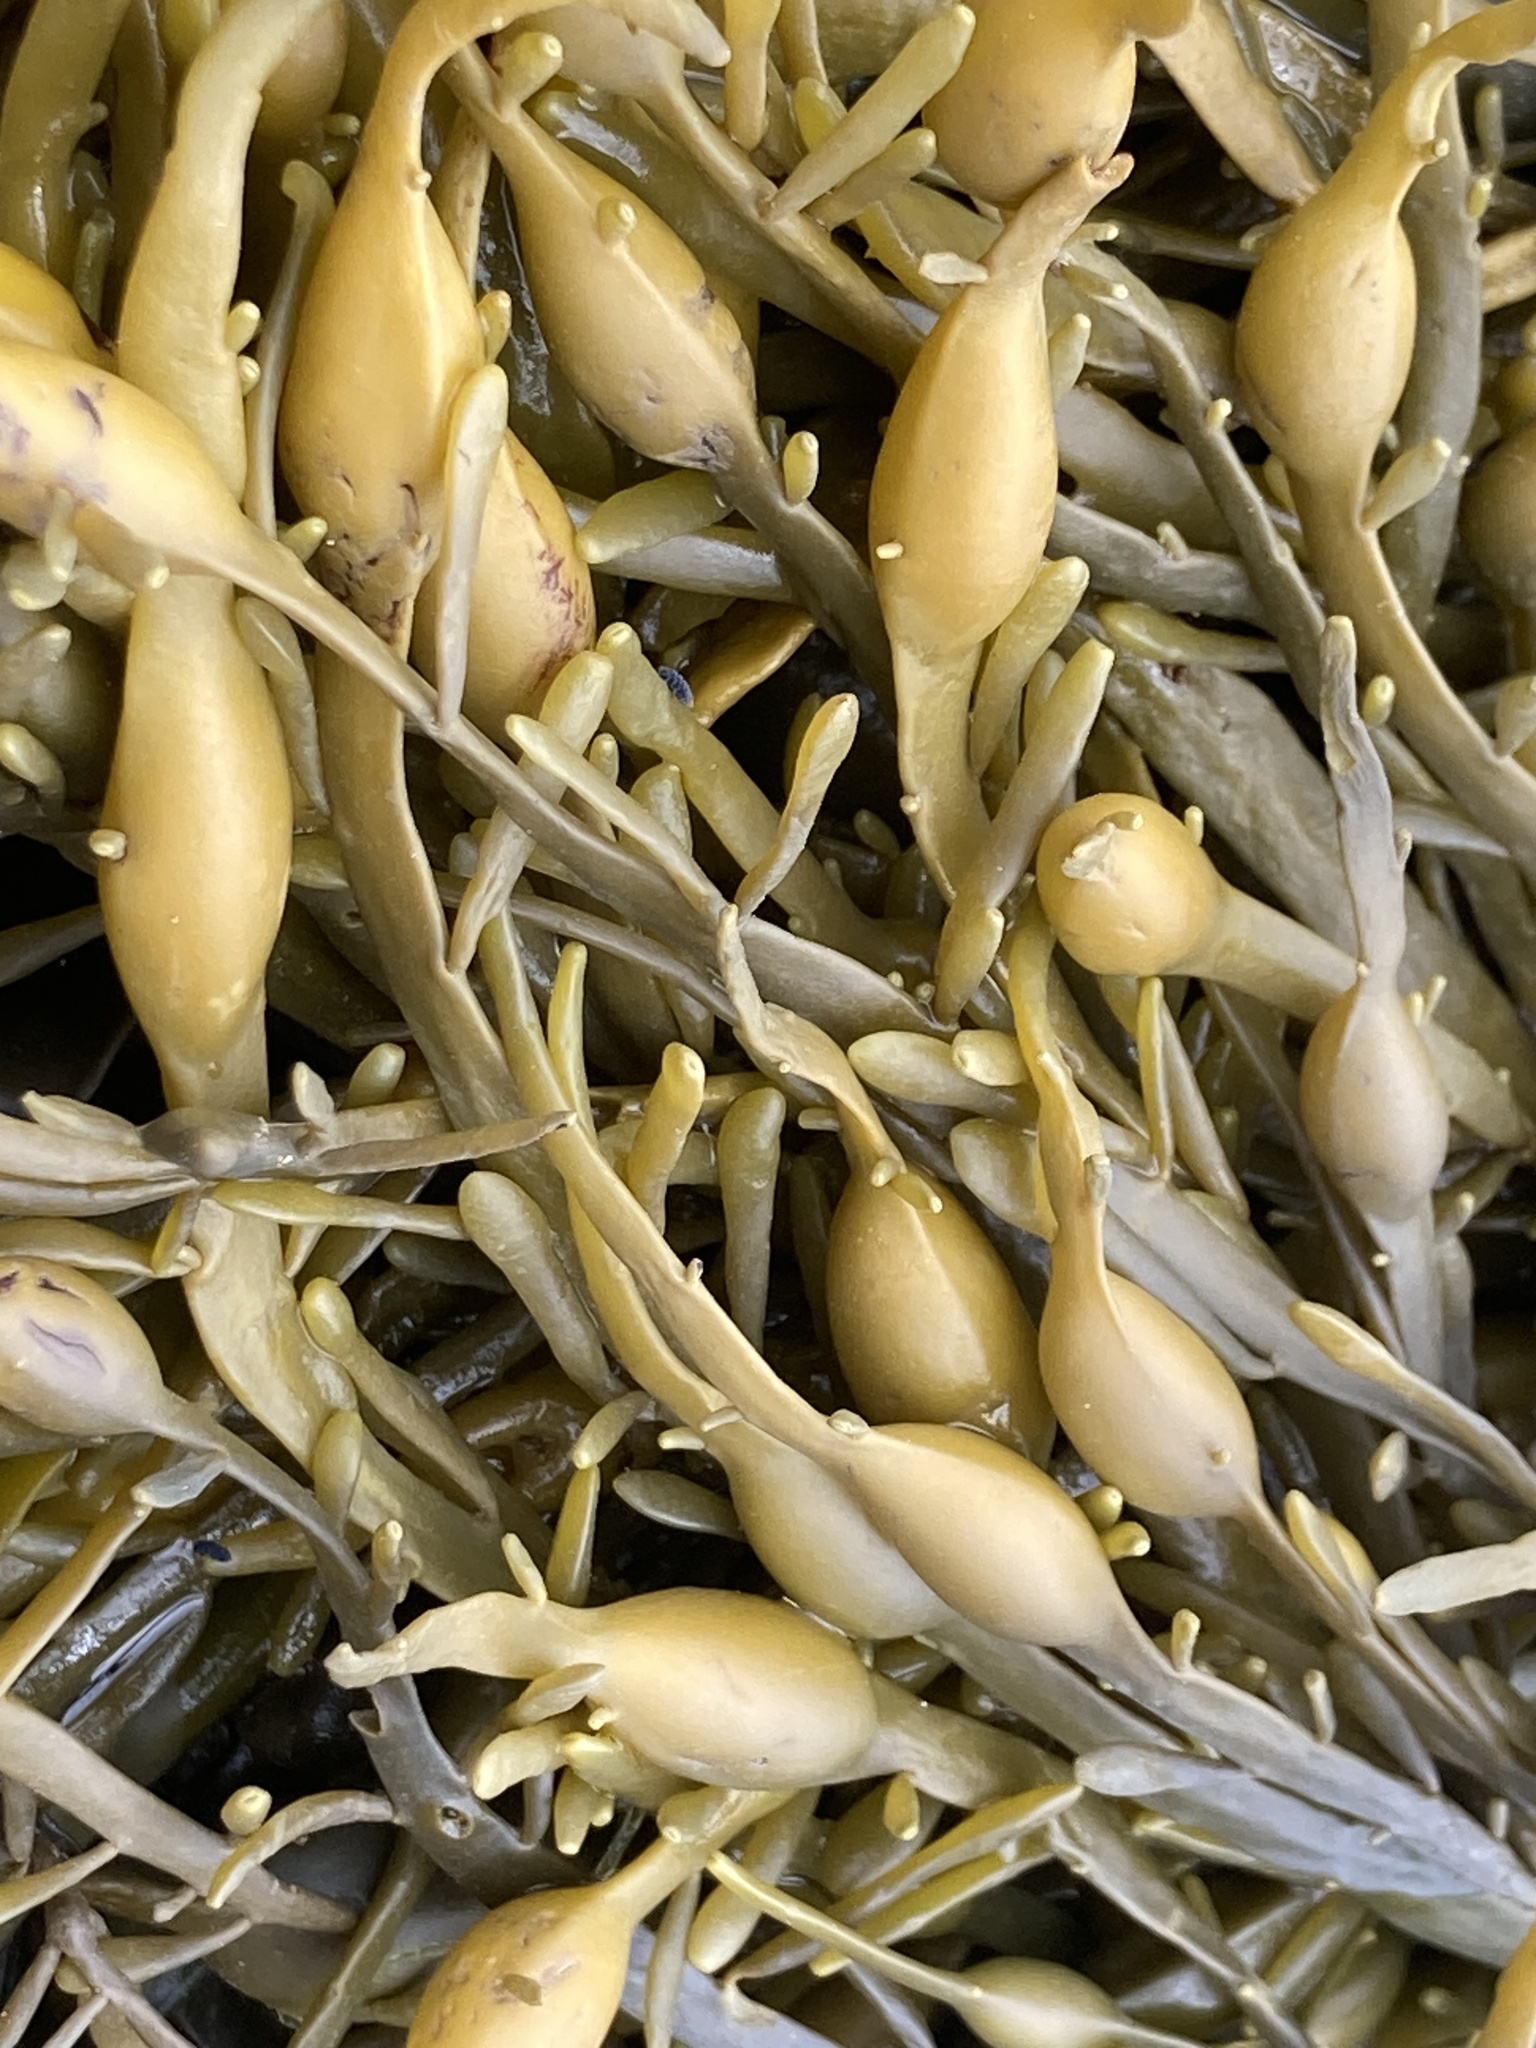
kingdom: Chromista
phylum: Ochrophyta
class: Phaeophyceae
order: Fucales
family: Fucaceae
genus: Ascophyllum
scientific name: Ascophyllum nodosum
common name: Knotted wrack
